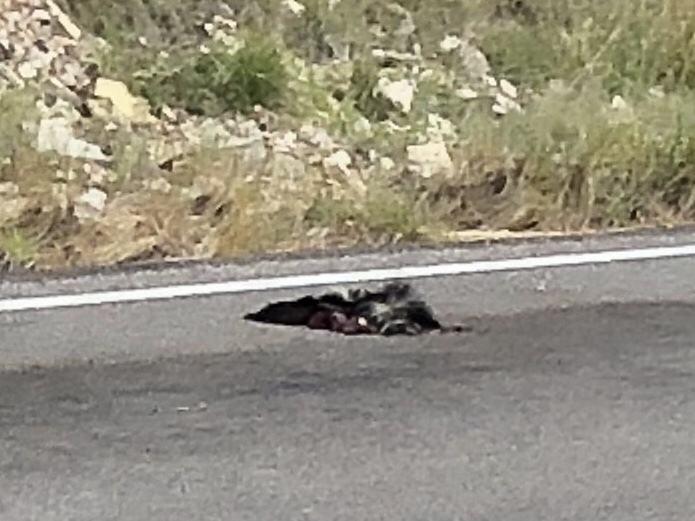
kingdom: Animalia
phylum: Chordata
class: Mammalia
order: Carnivora
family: Mephitidae
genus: Mephitis
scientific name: Mephitis mephitis
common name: Striped skunk
